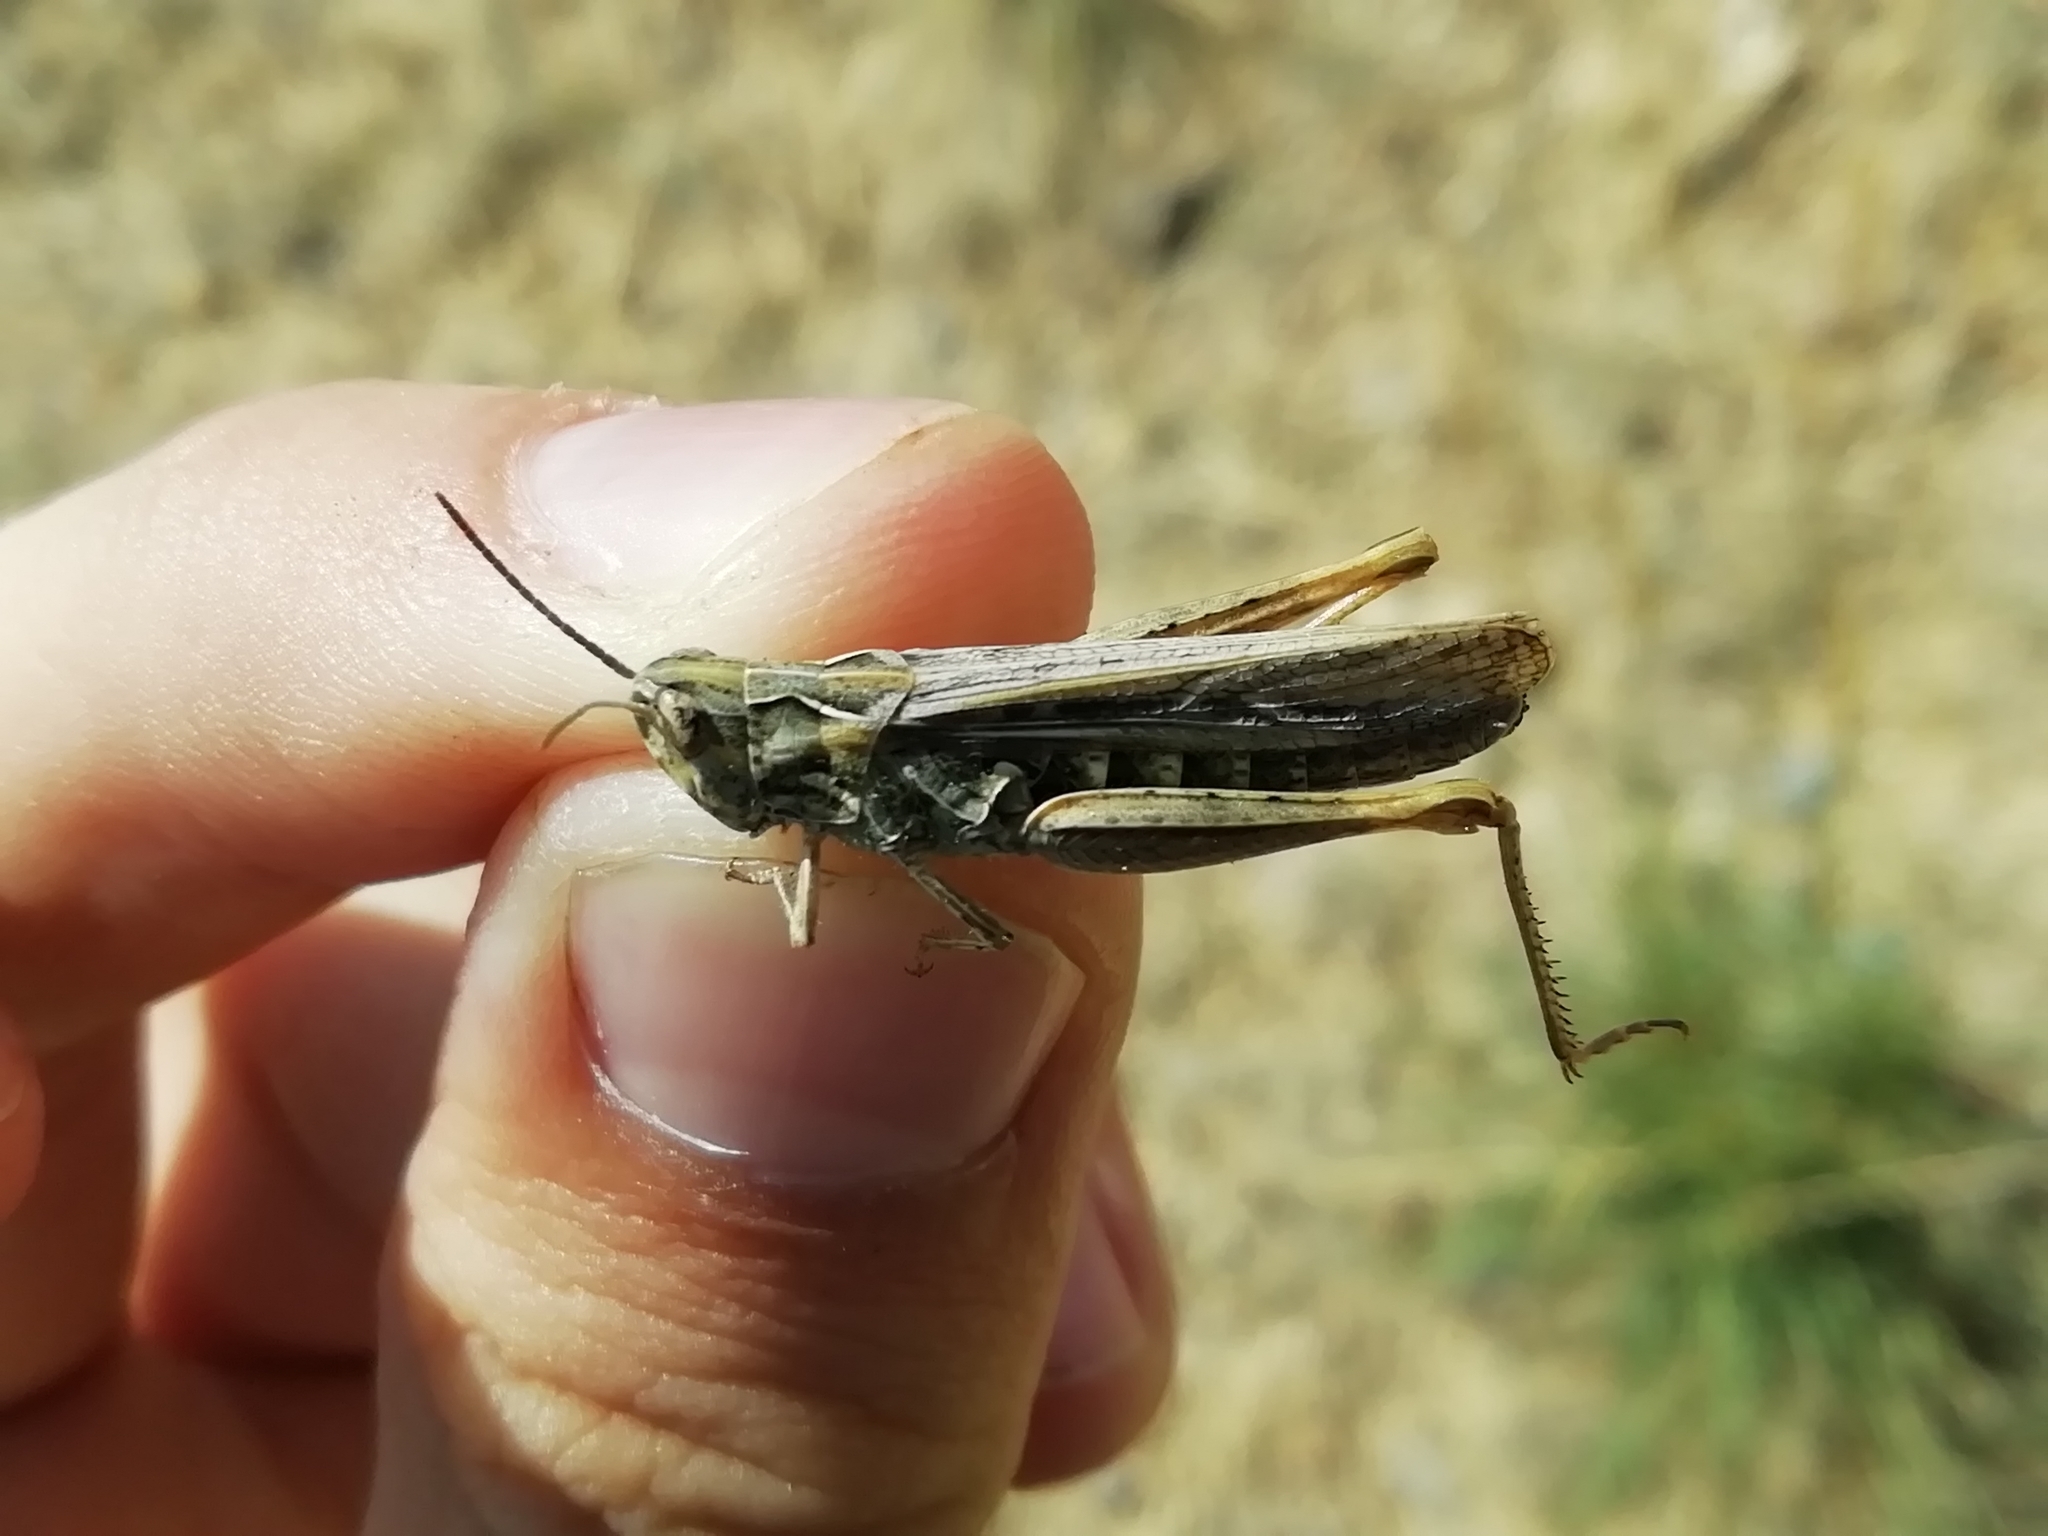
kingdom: Animalia
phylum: Arthropoda
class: Insecta
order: Orthoptera
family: Acrididae
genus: Chorthippus
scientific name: Chorthippus miramae
